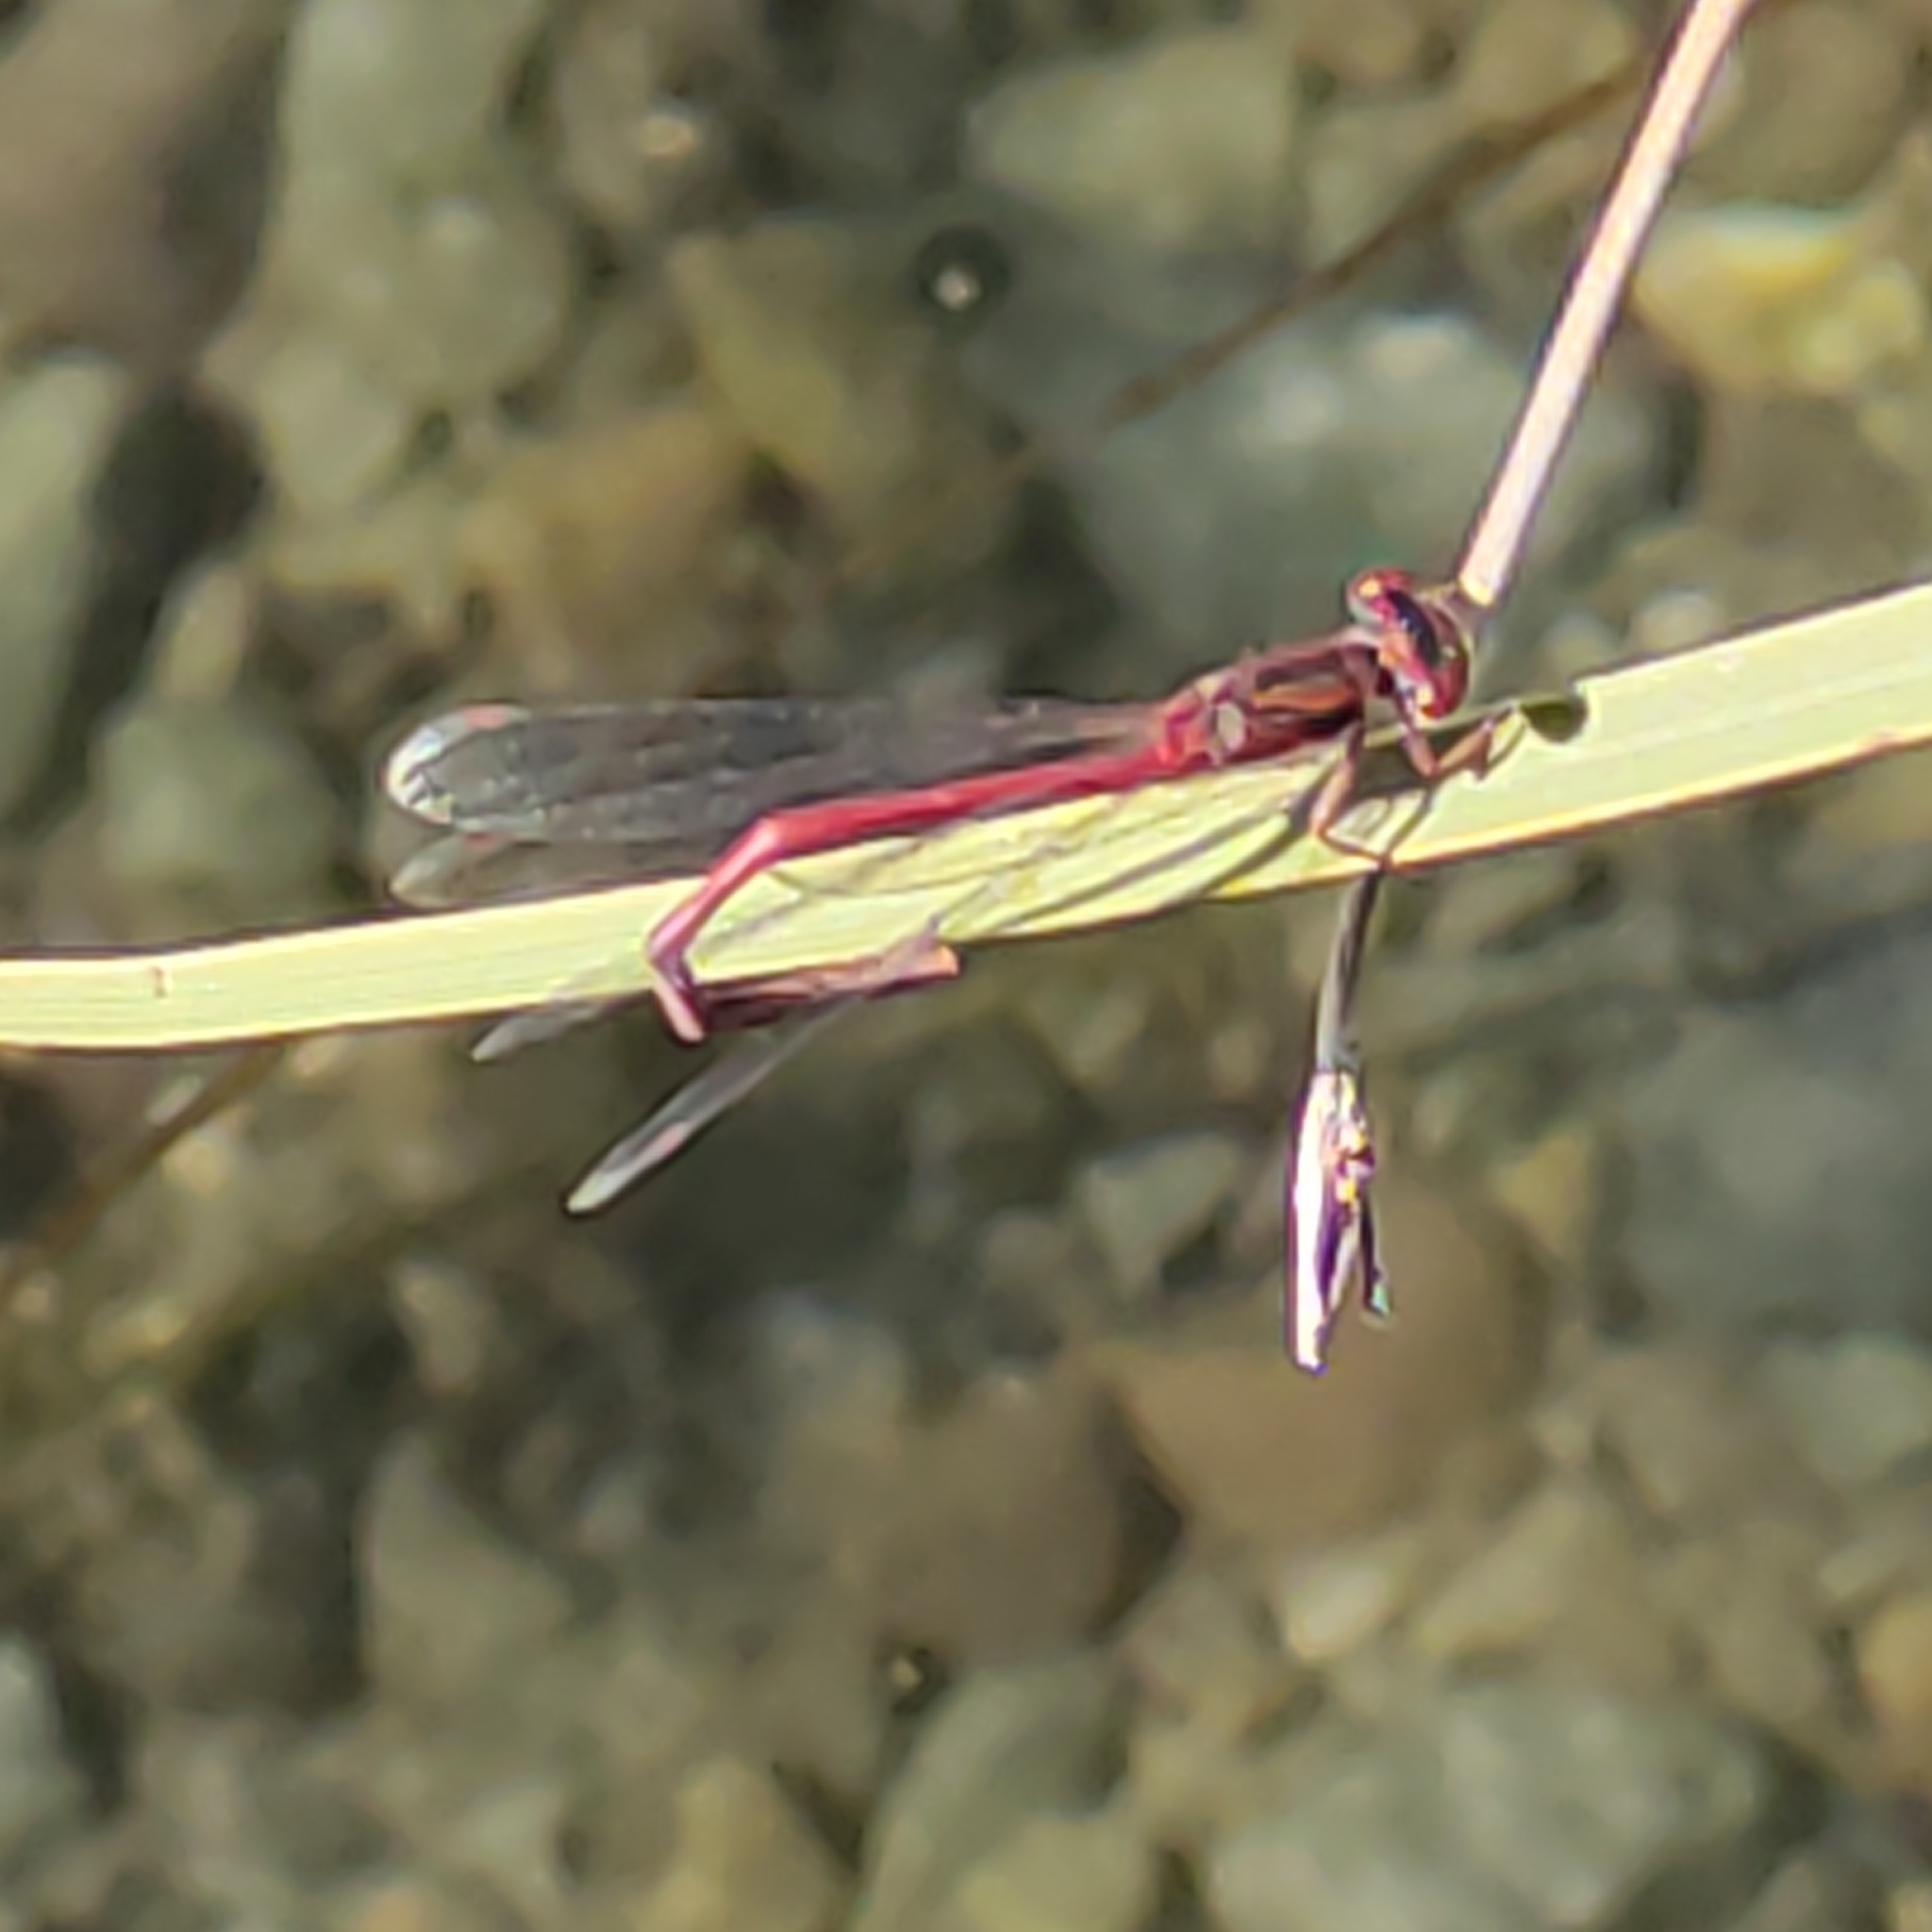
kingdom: Animalia
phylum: Arthropoda
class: Insecta
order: Odonata
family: Coenagrionidae
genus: Xanthocnemis
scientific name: Xanthocnemis zealandica
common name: Common redcoat damselfly
